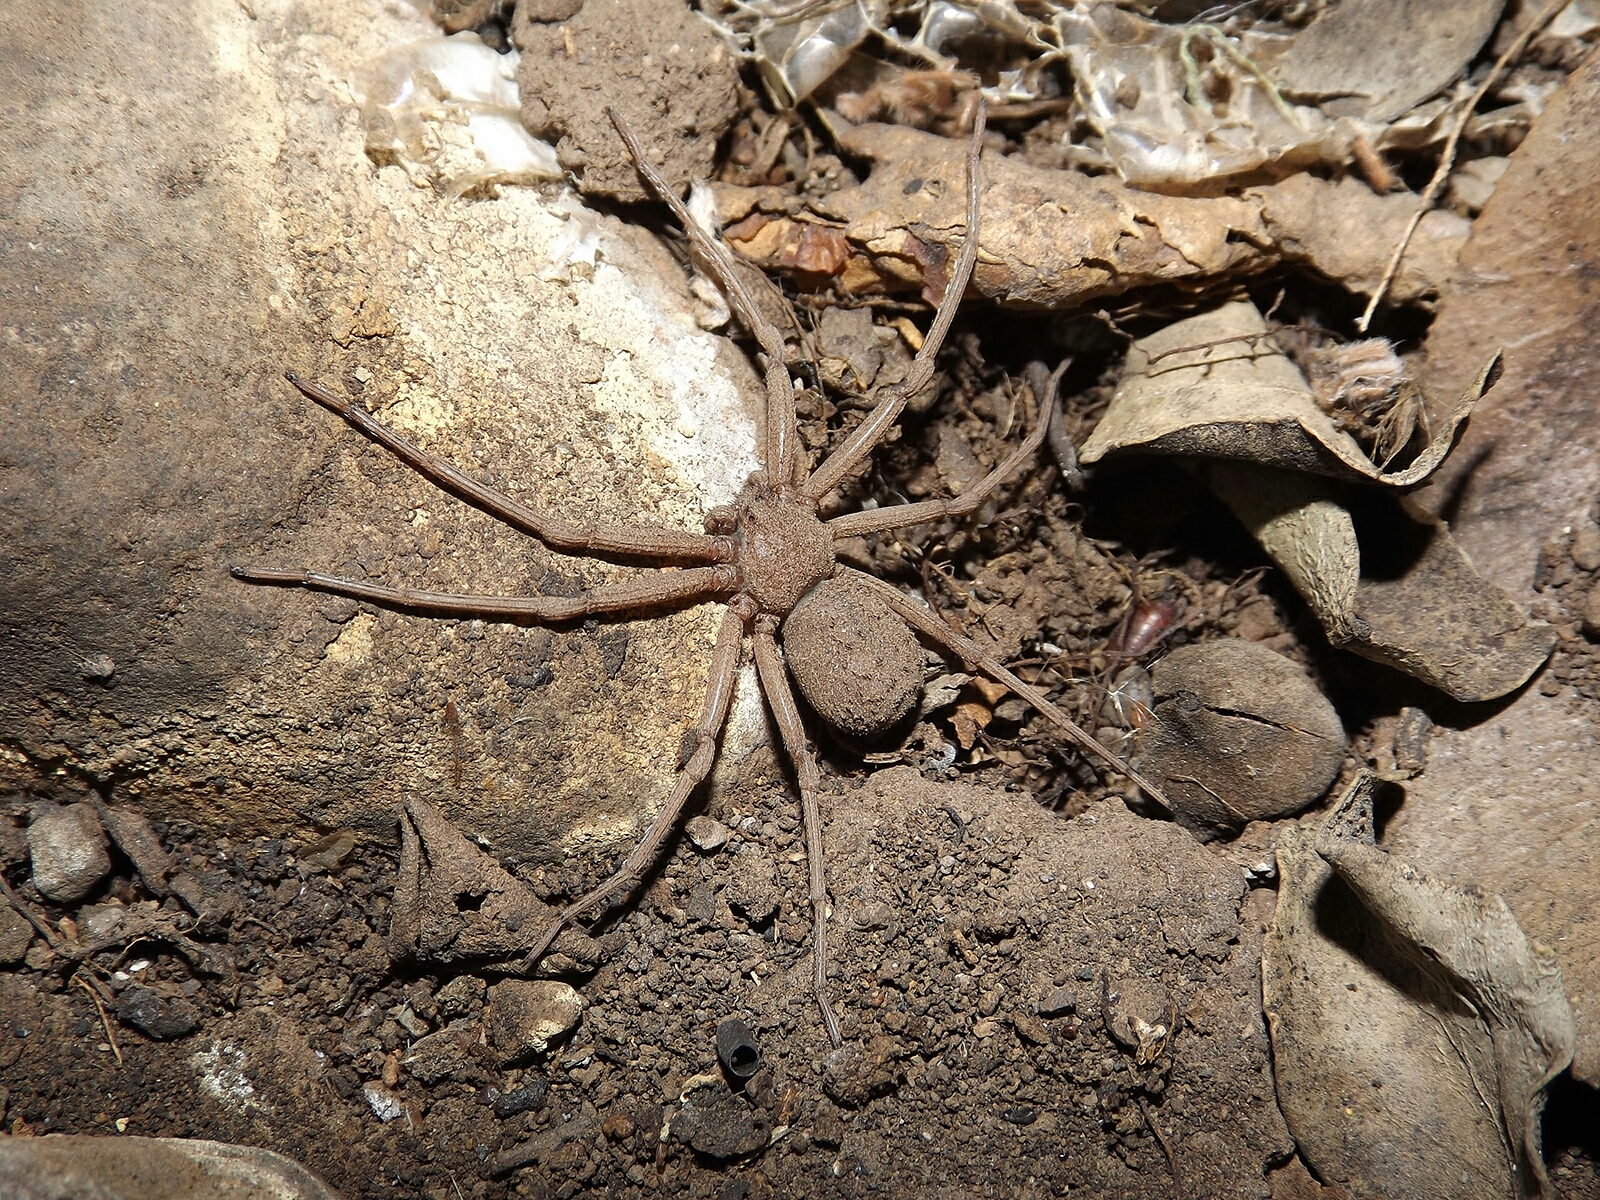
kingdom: Animalia
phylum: Arthropoda
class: Arachnida
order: Araneae
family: Sicariidae
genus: Sicarius
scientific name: Sicarius thomisoides
